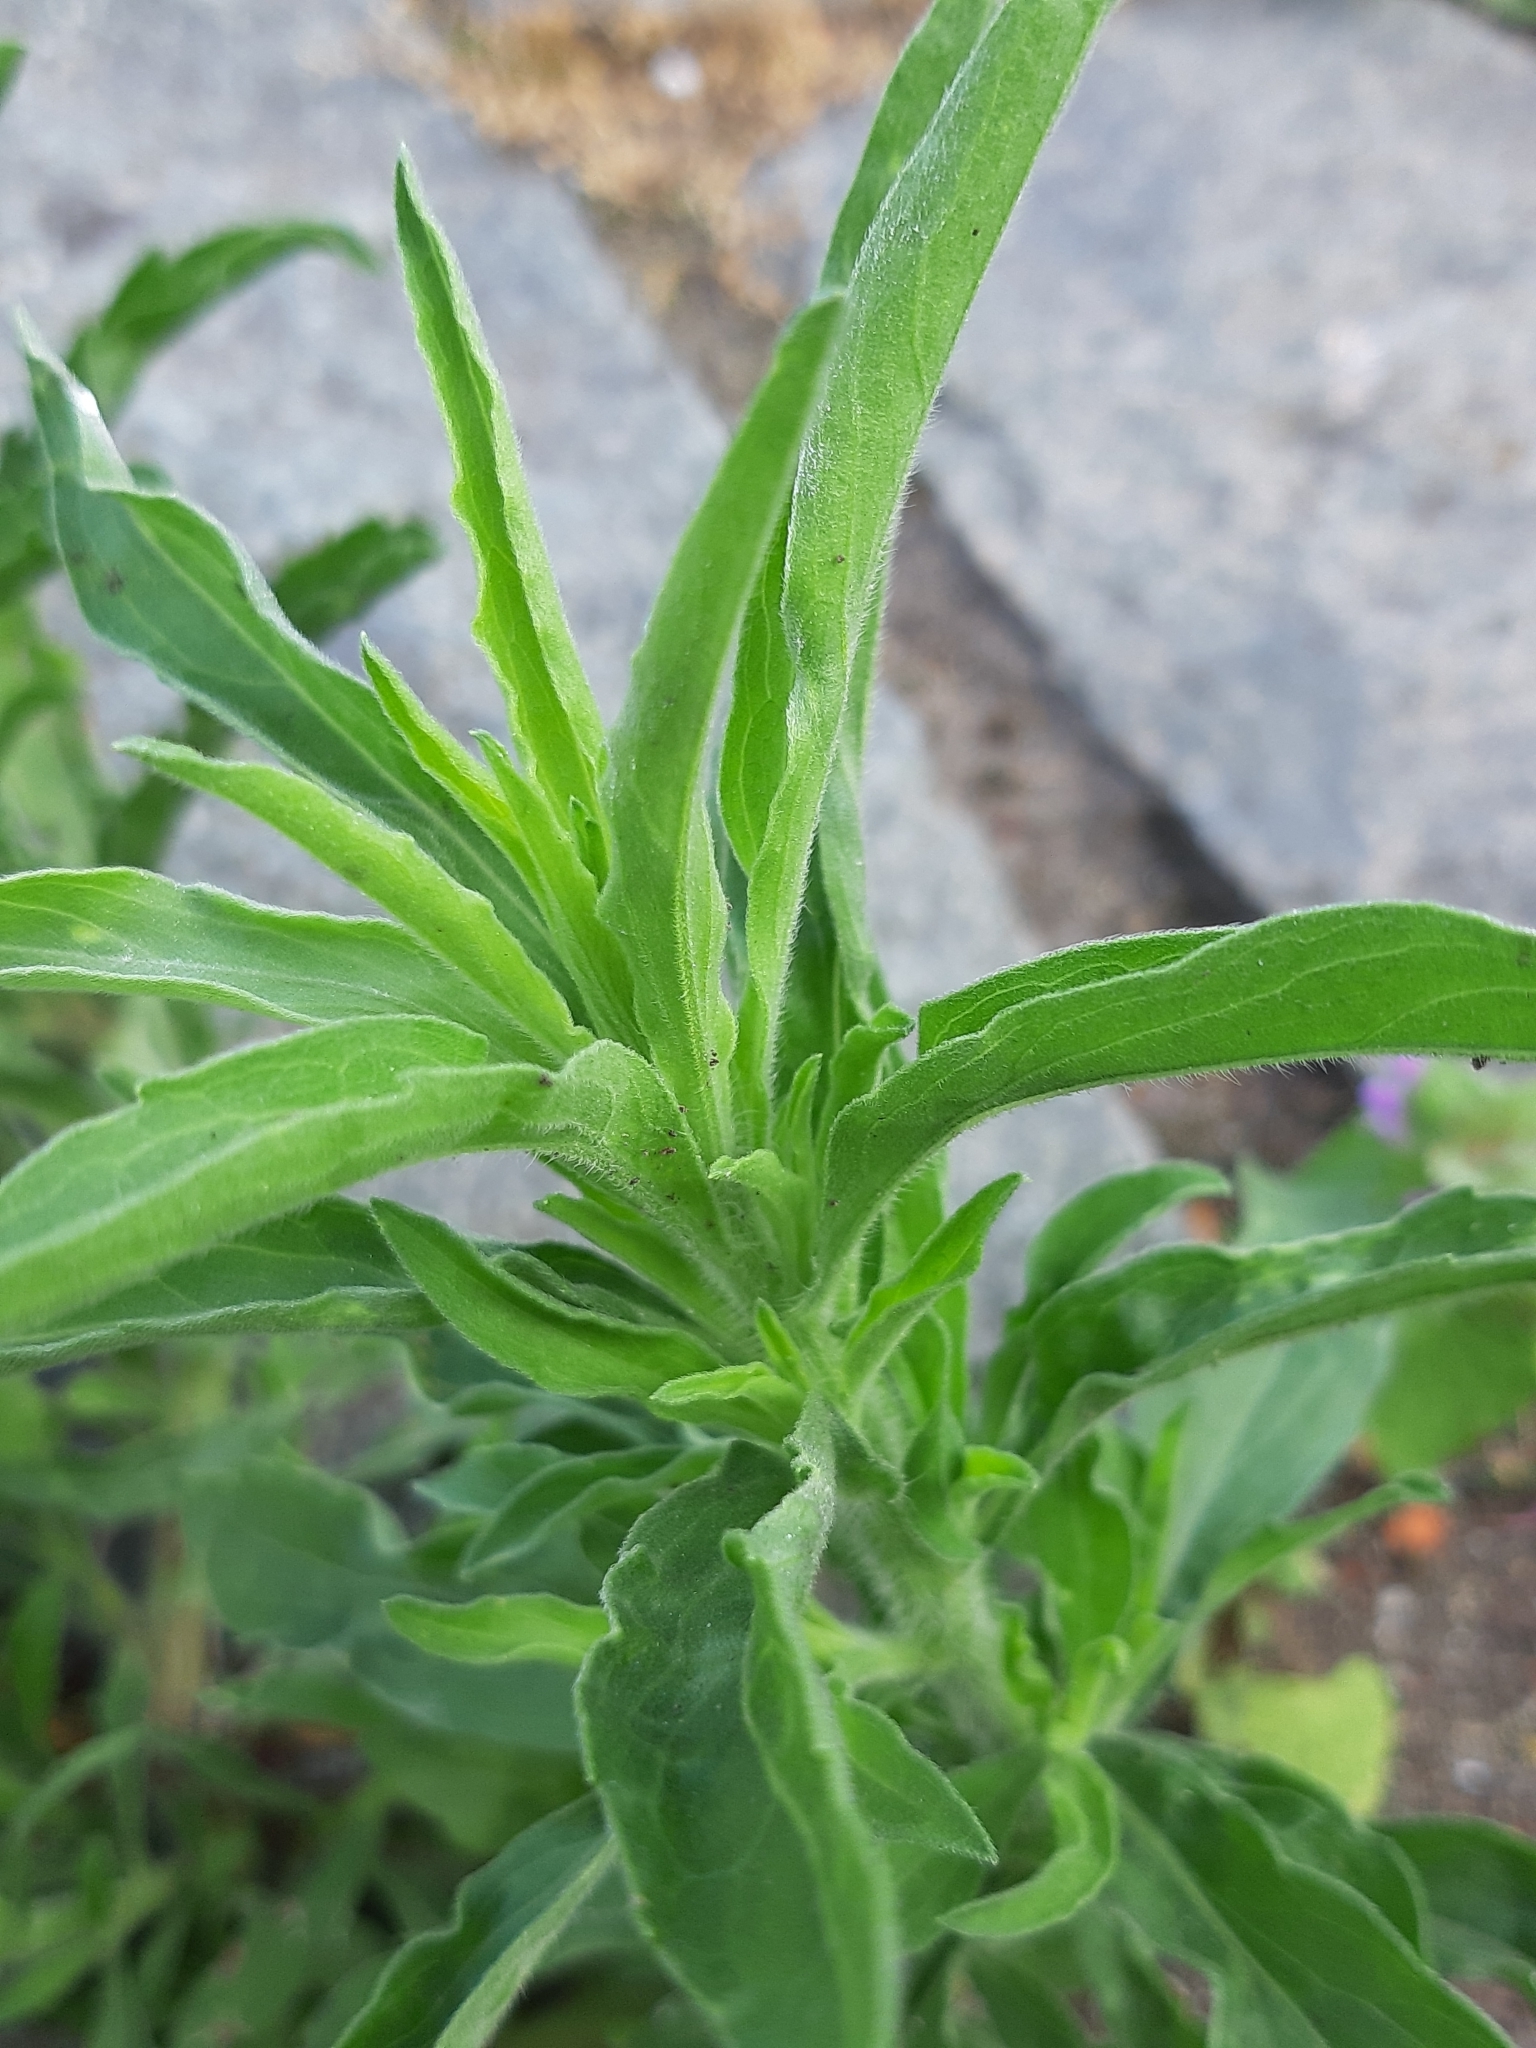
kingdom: Plantae
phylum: Tracheophyta
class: Magnoliopsida
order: Asterales
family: Asteraceae
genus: Erigeron
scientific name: Erigeron sumatrensis
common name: Daisy
